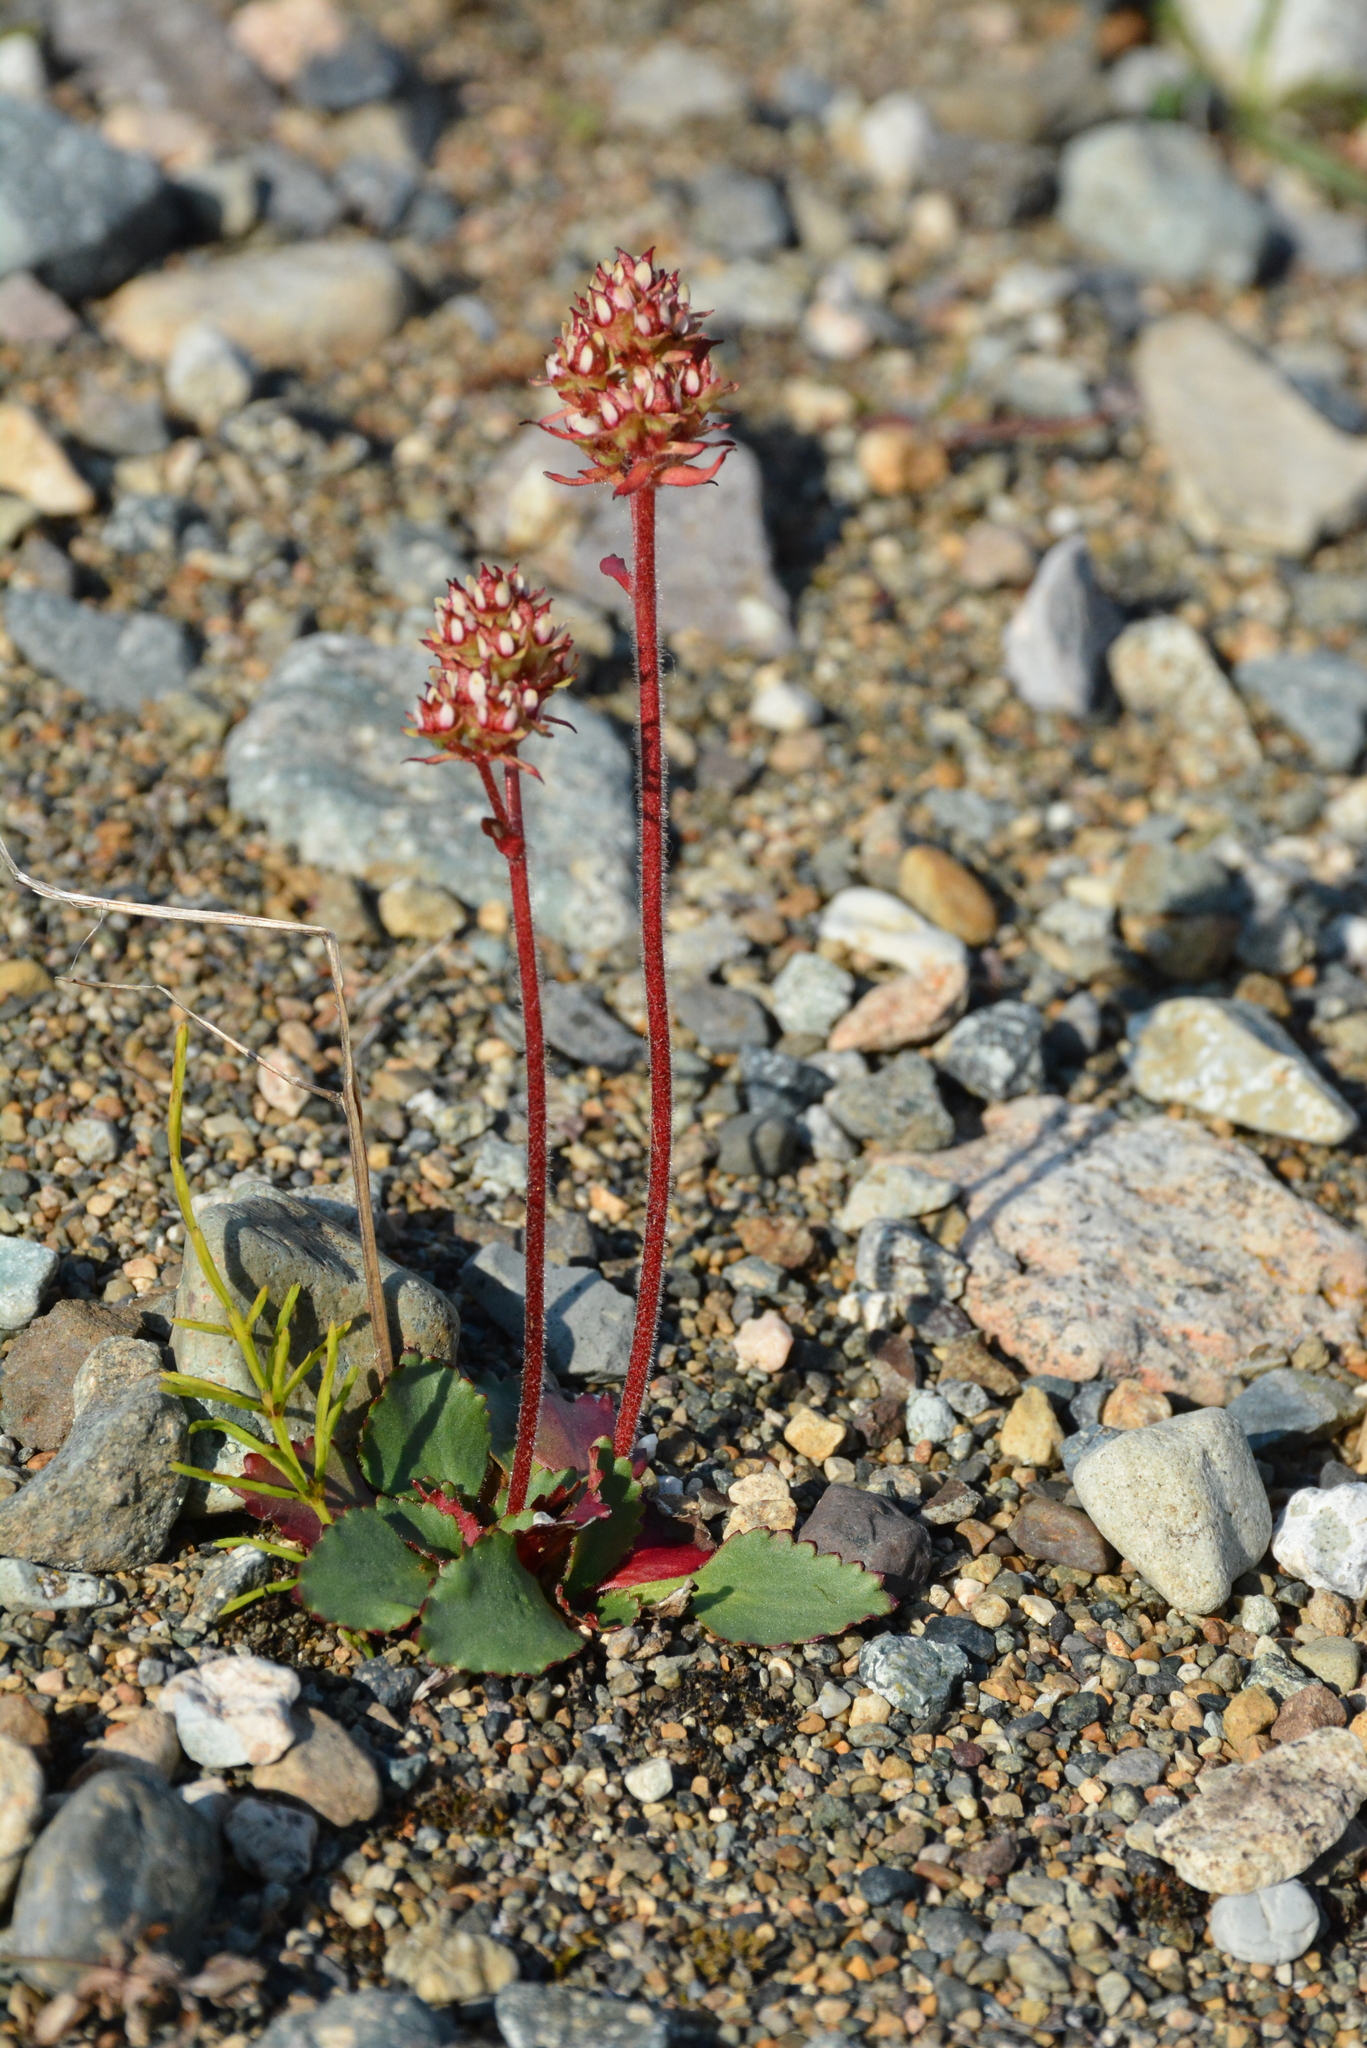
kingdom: Plantae
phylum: Tracheophyta
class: Magnoliopsida
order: Saxifragales
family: Saxifragaceae
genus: Micranthes
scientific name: Micranthes nivalis
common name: Alpine saxifrage
